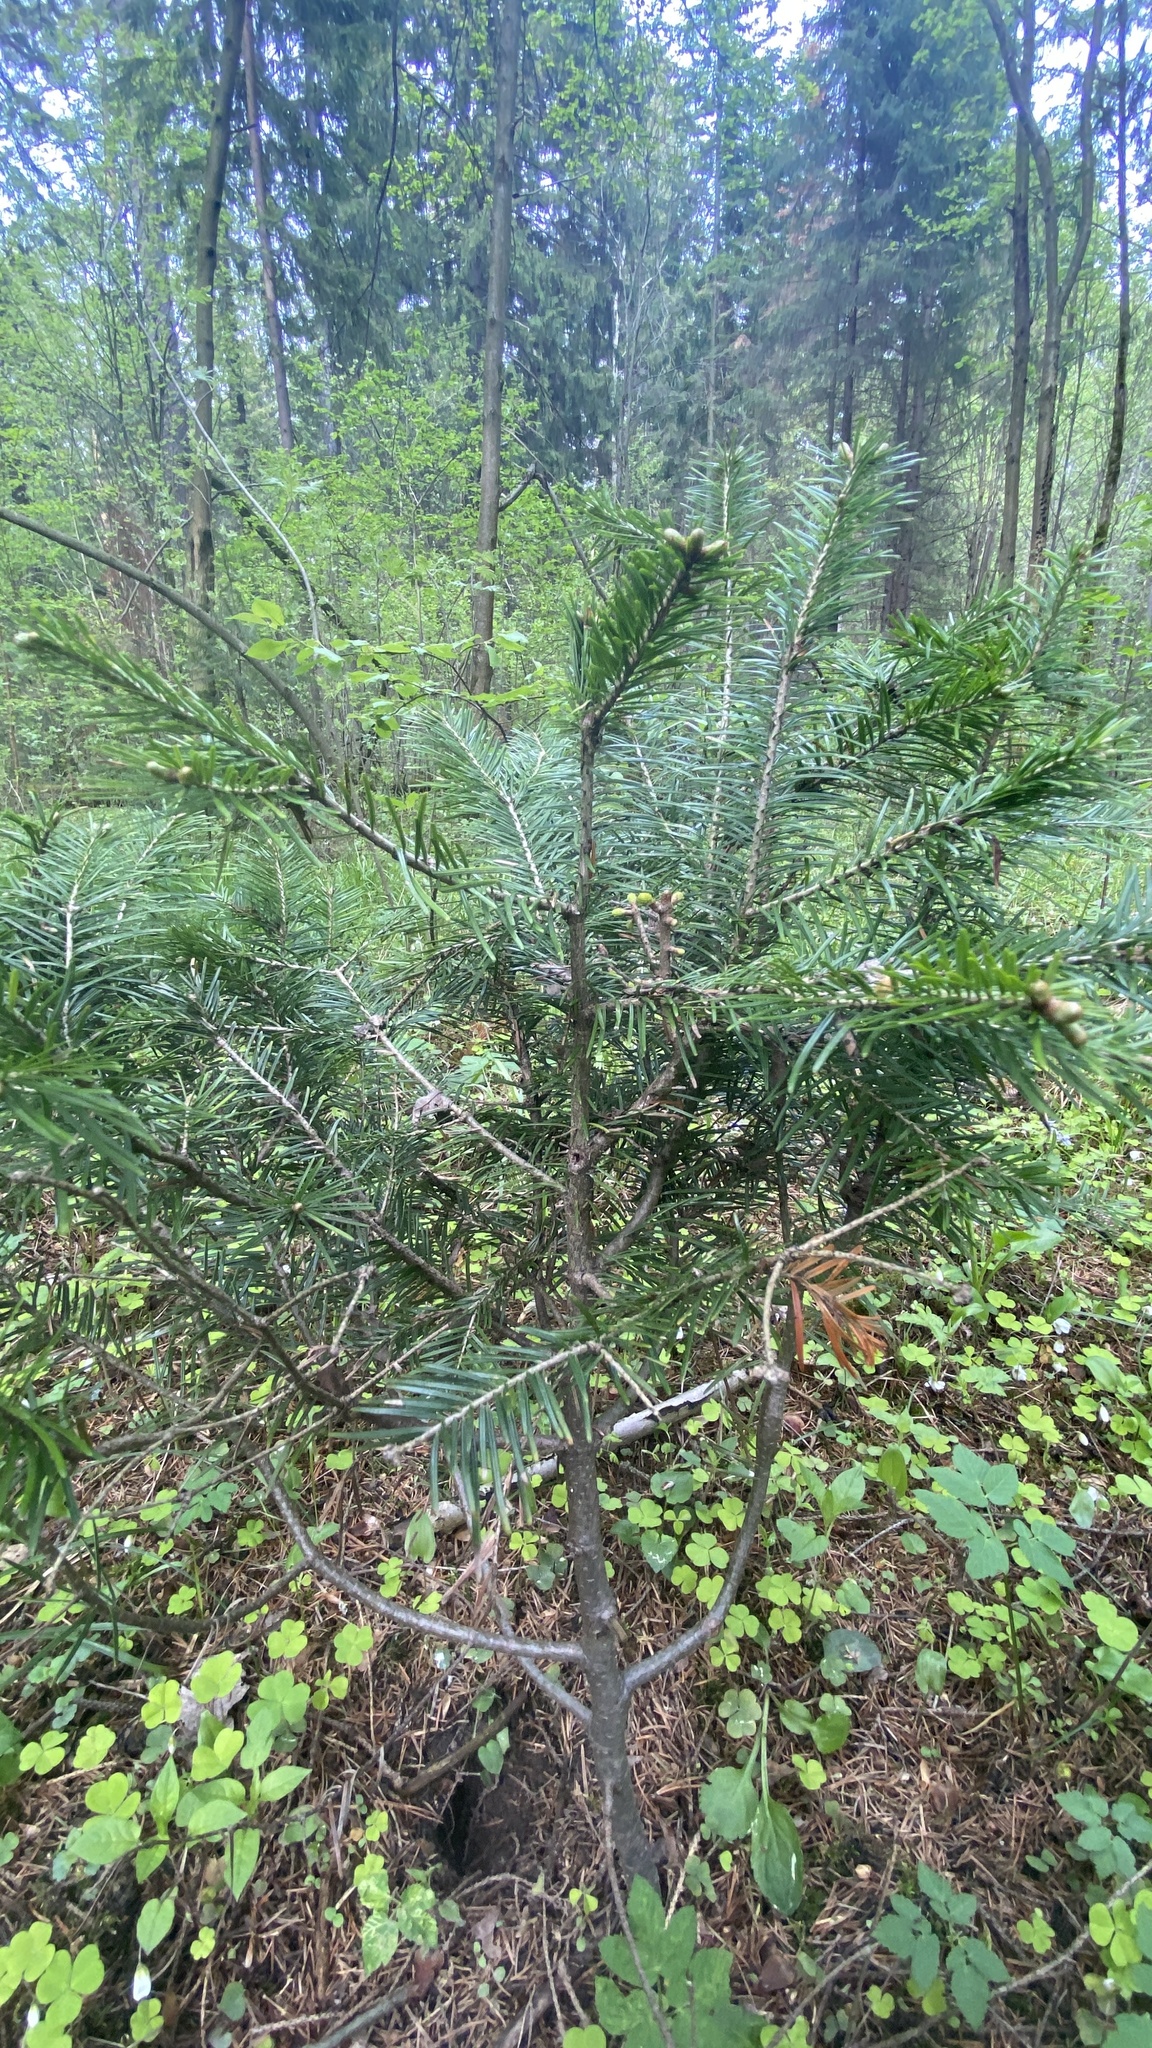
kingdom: Plantae
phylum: Tracheophyta
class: Pinopsida
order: Pinales
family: Pinaceae
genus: Abies
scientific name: Abies sibirica
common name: Siberian fir
